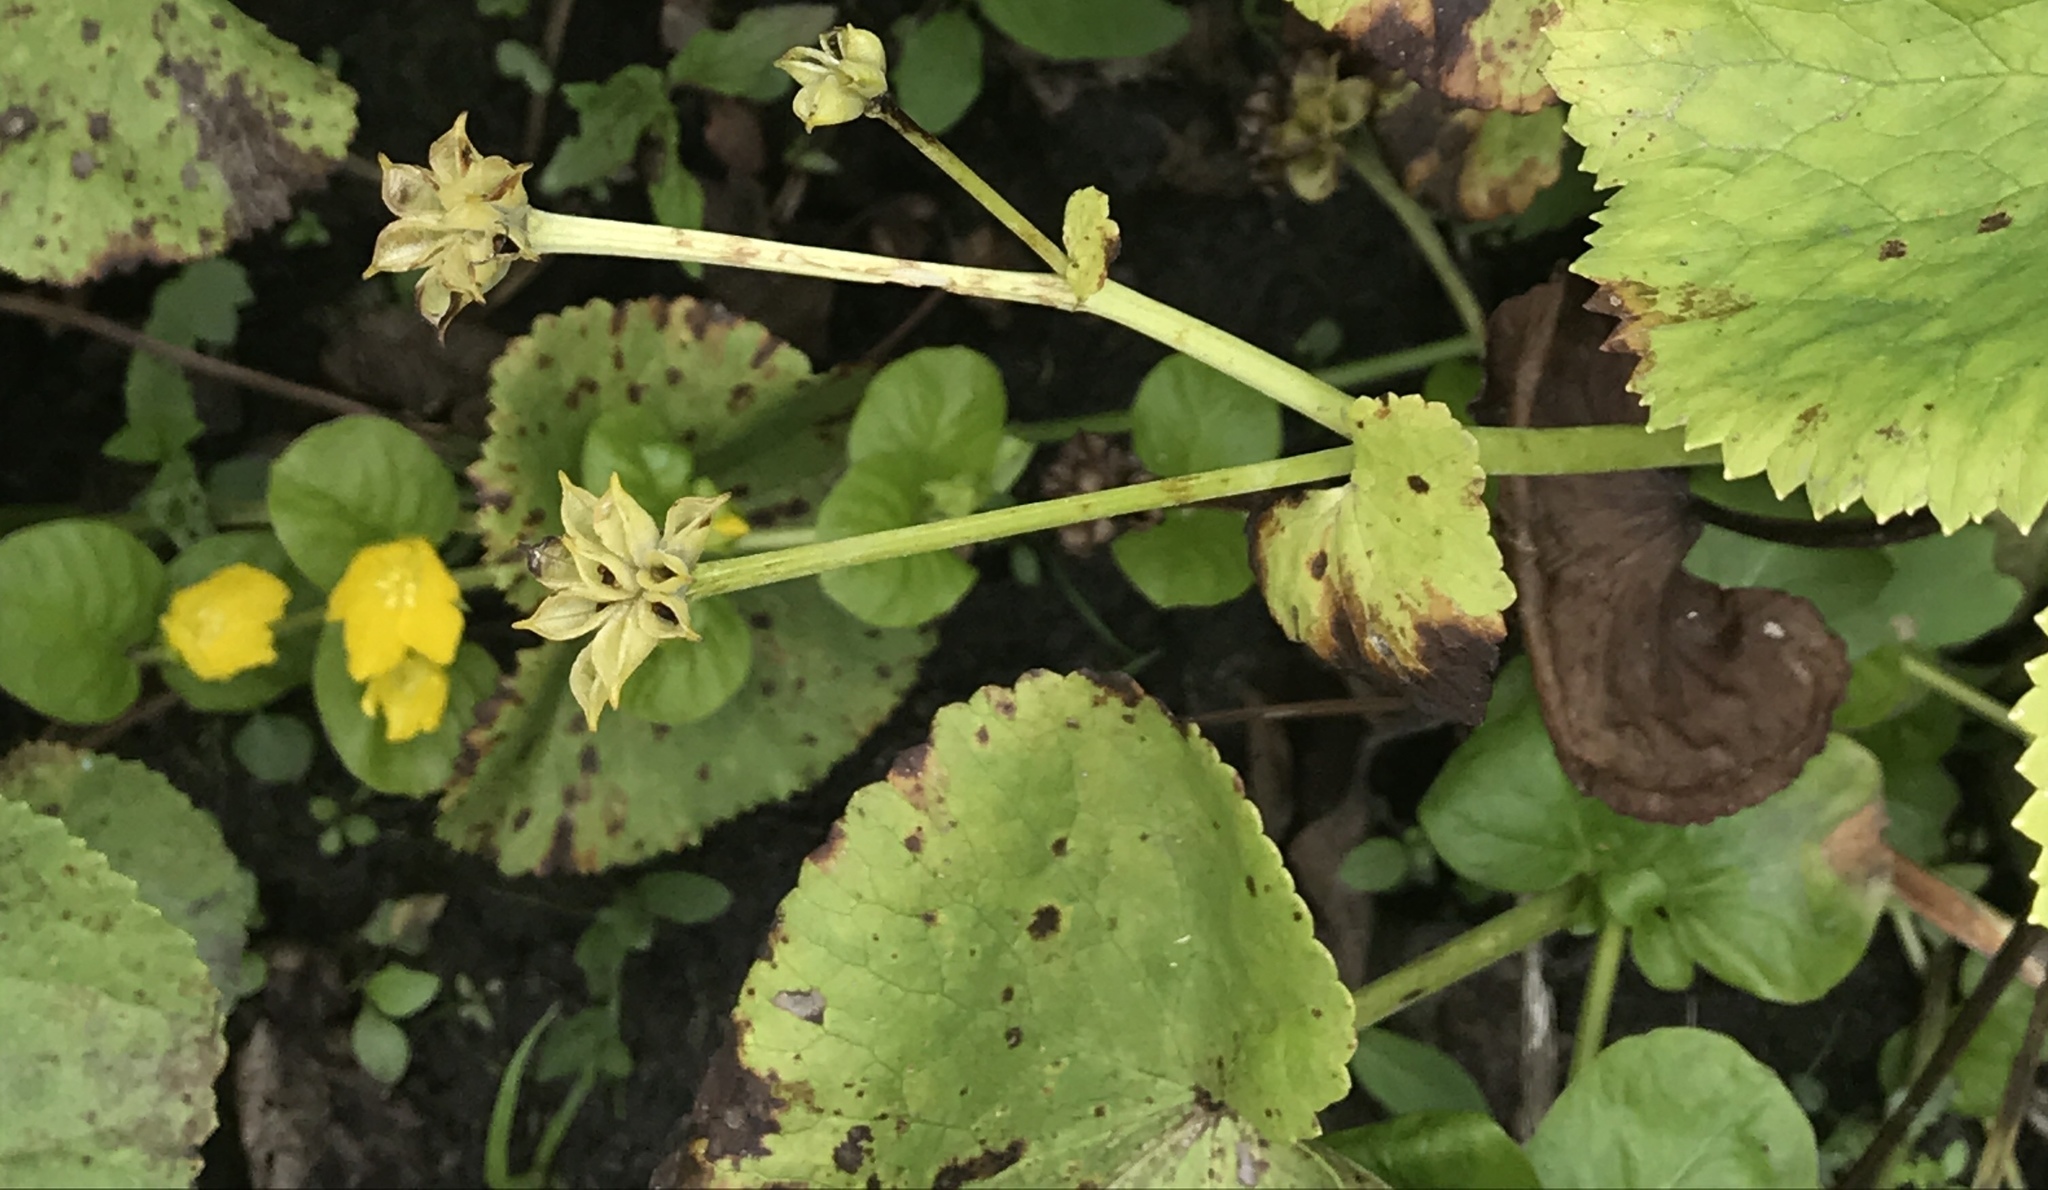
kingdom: Plantae
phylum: Tracheophyta
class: Magnoliopsida
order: Ranunculales
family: Ranunculaceae
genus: Caltha
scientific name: Caltha palustris
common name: Marsh marigold
